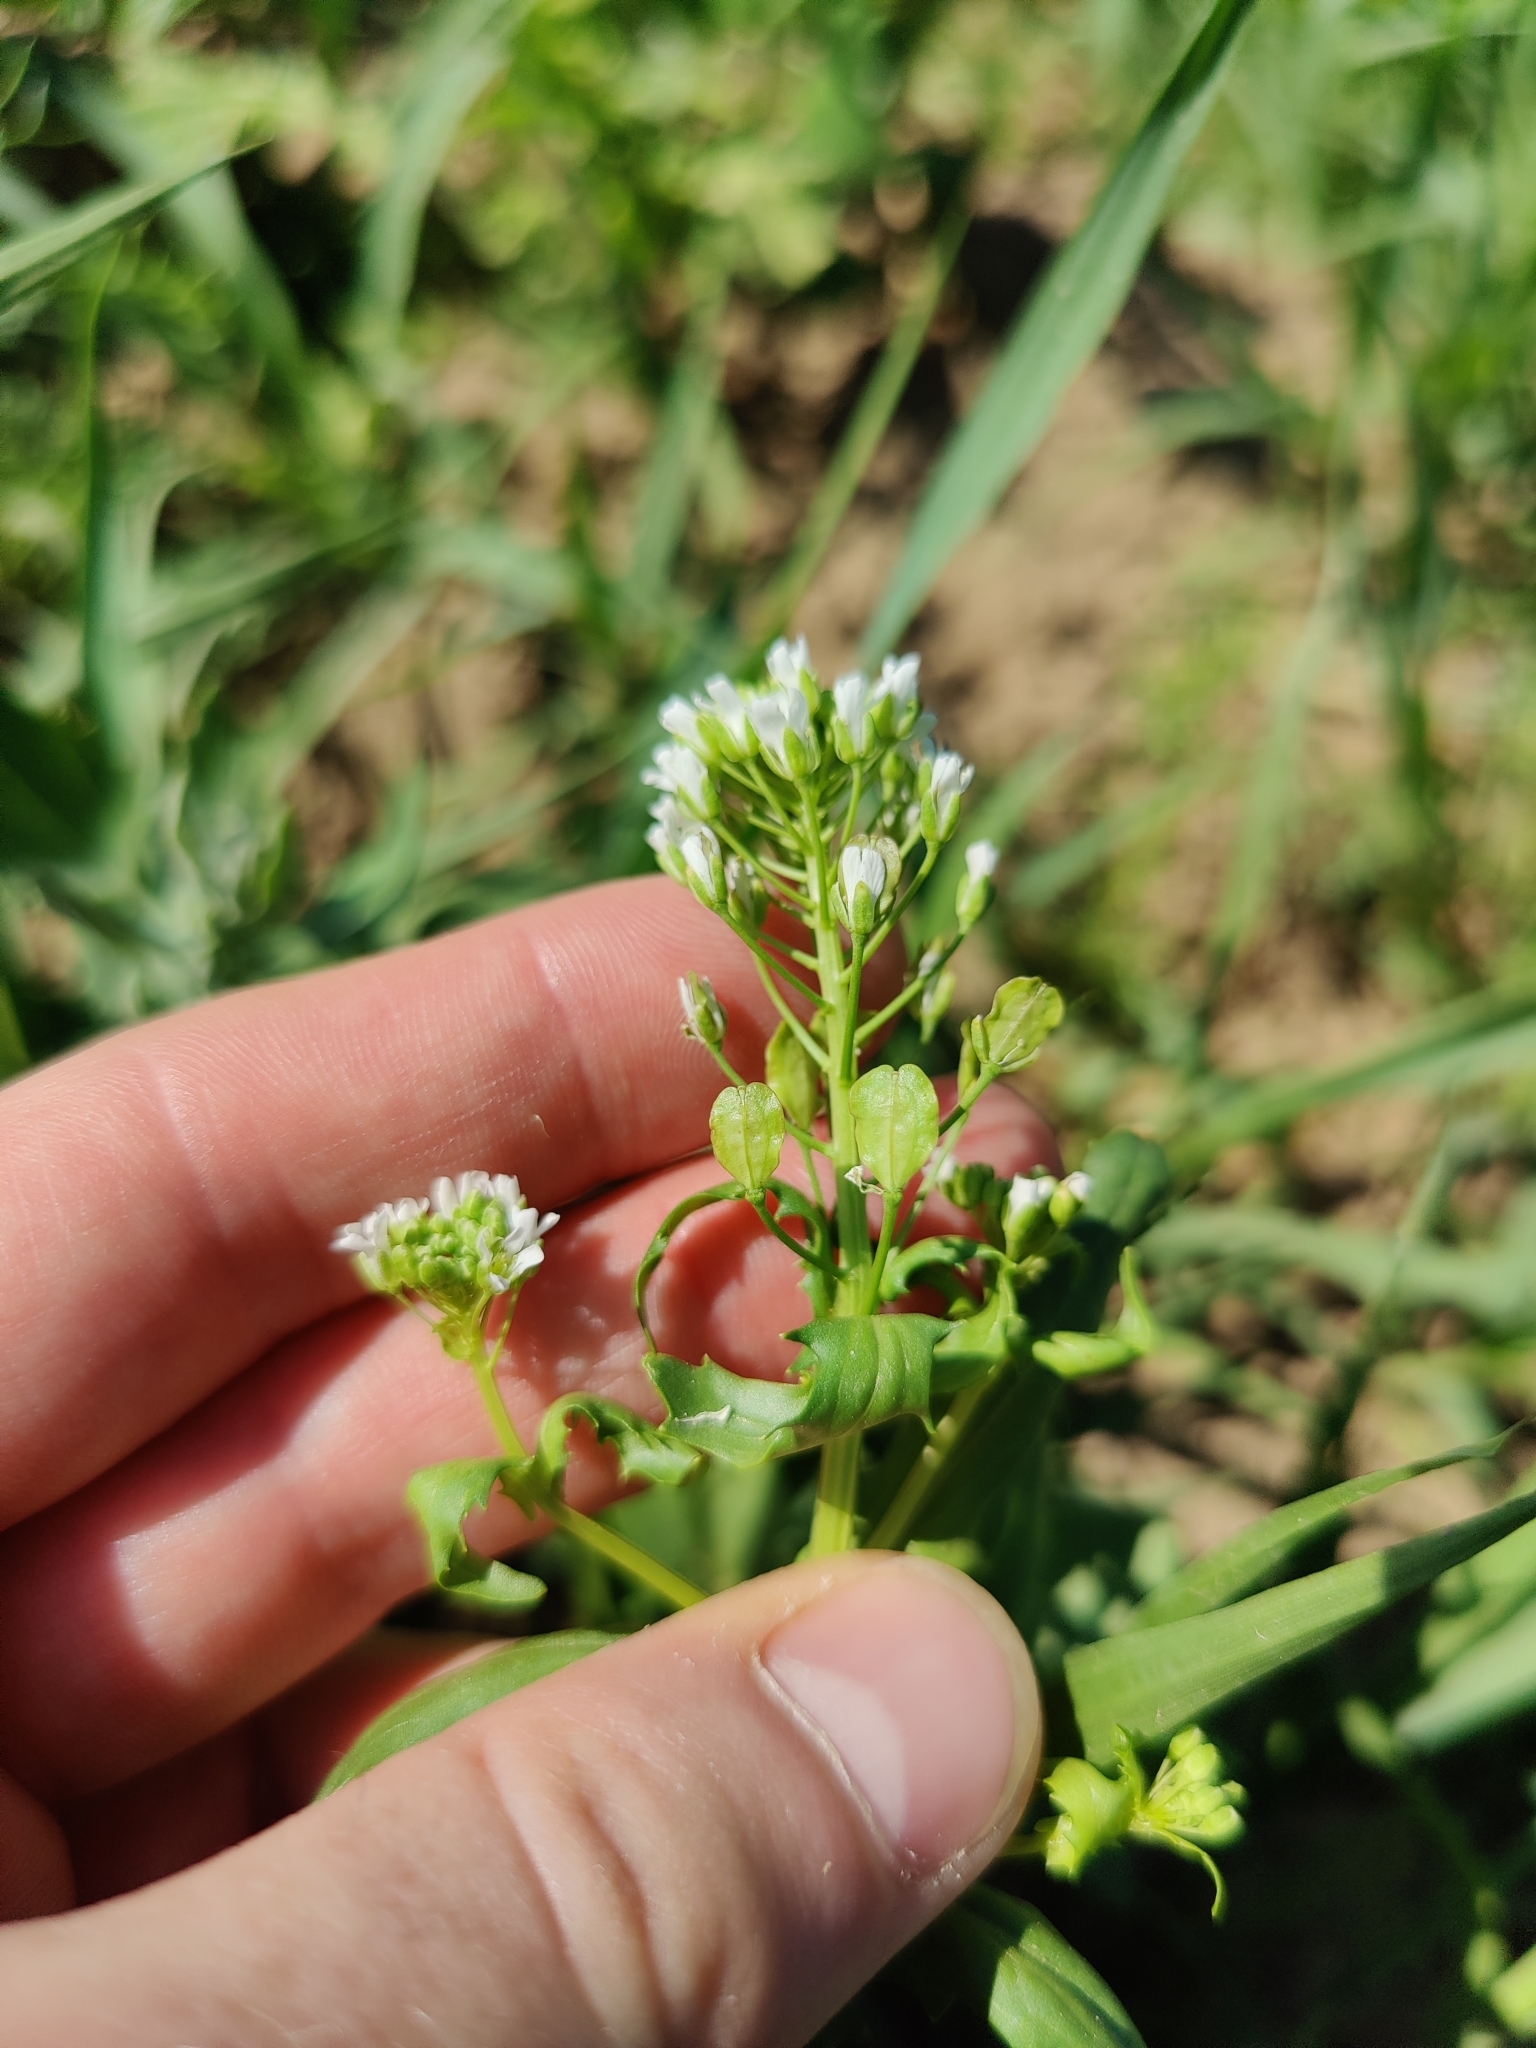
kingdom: Plantae
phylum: Tracheophyta
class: Magnoliopsida
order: Brassicales
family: Brassicaceae
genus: Thlaspi
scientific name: Thlaspi arvense
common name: Field pennycress
